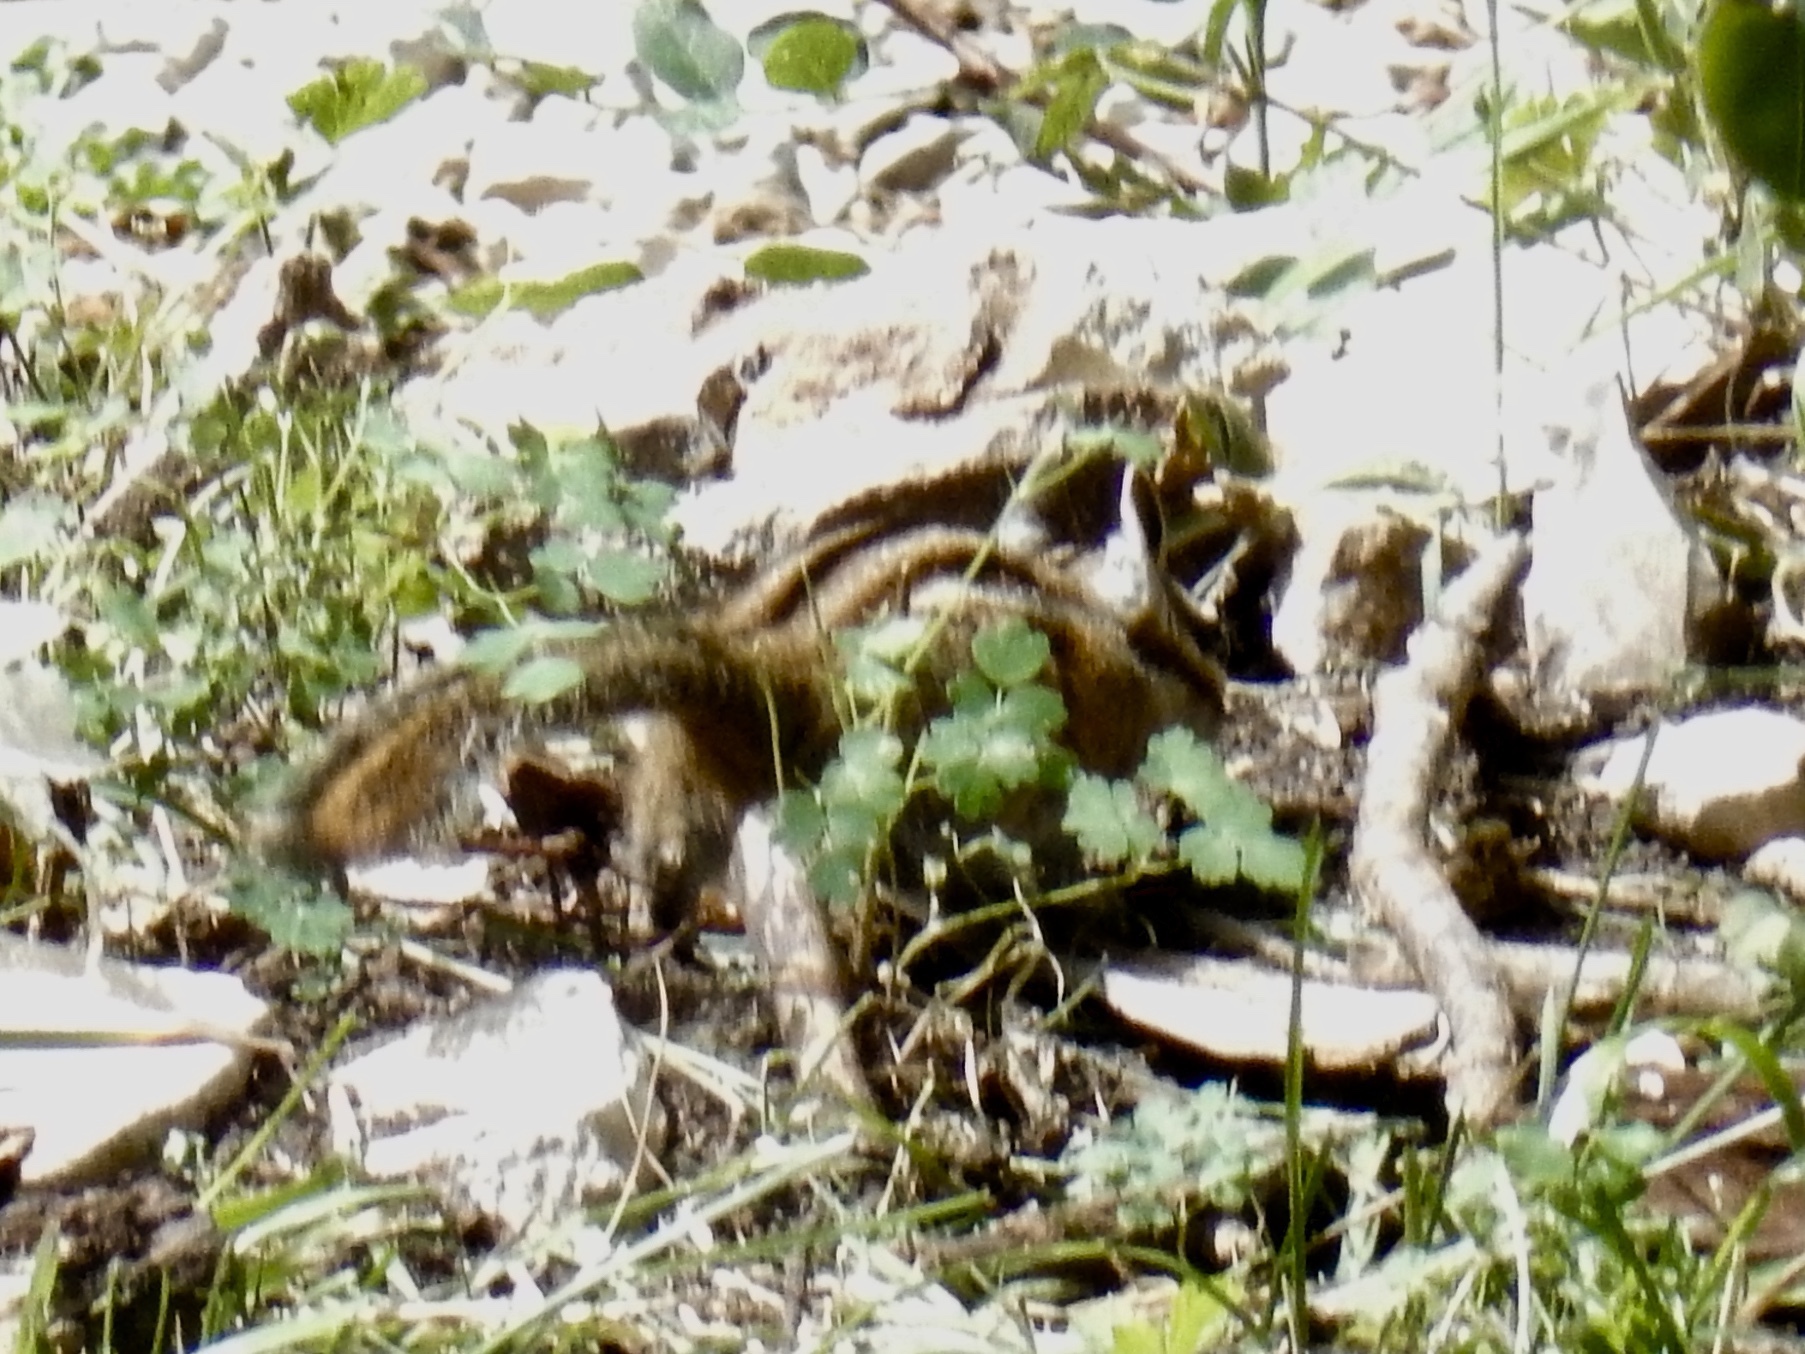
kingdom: Animalia
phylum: Chordata
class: Mammalia
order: Rodentia
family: Sciuridae
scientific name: Sciuridae
